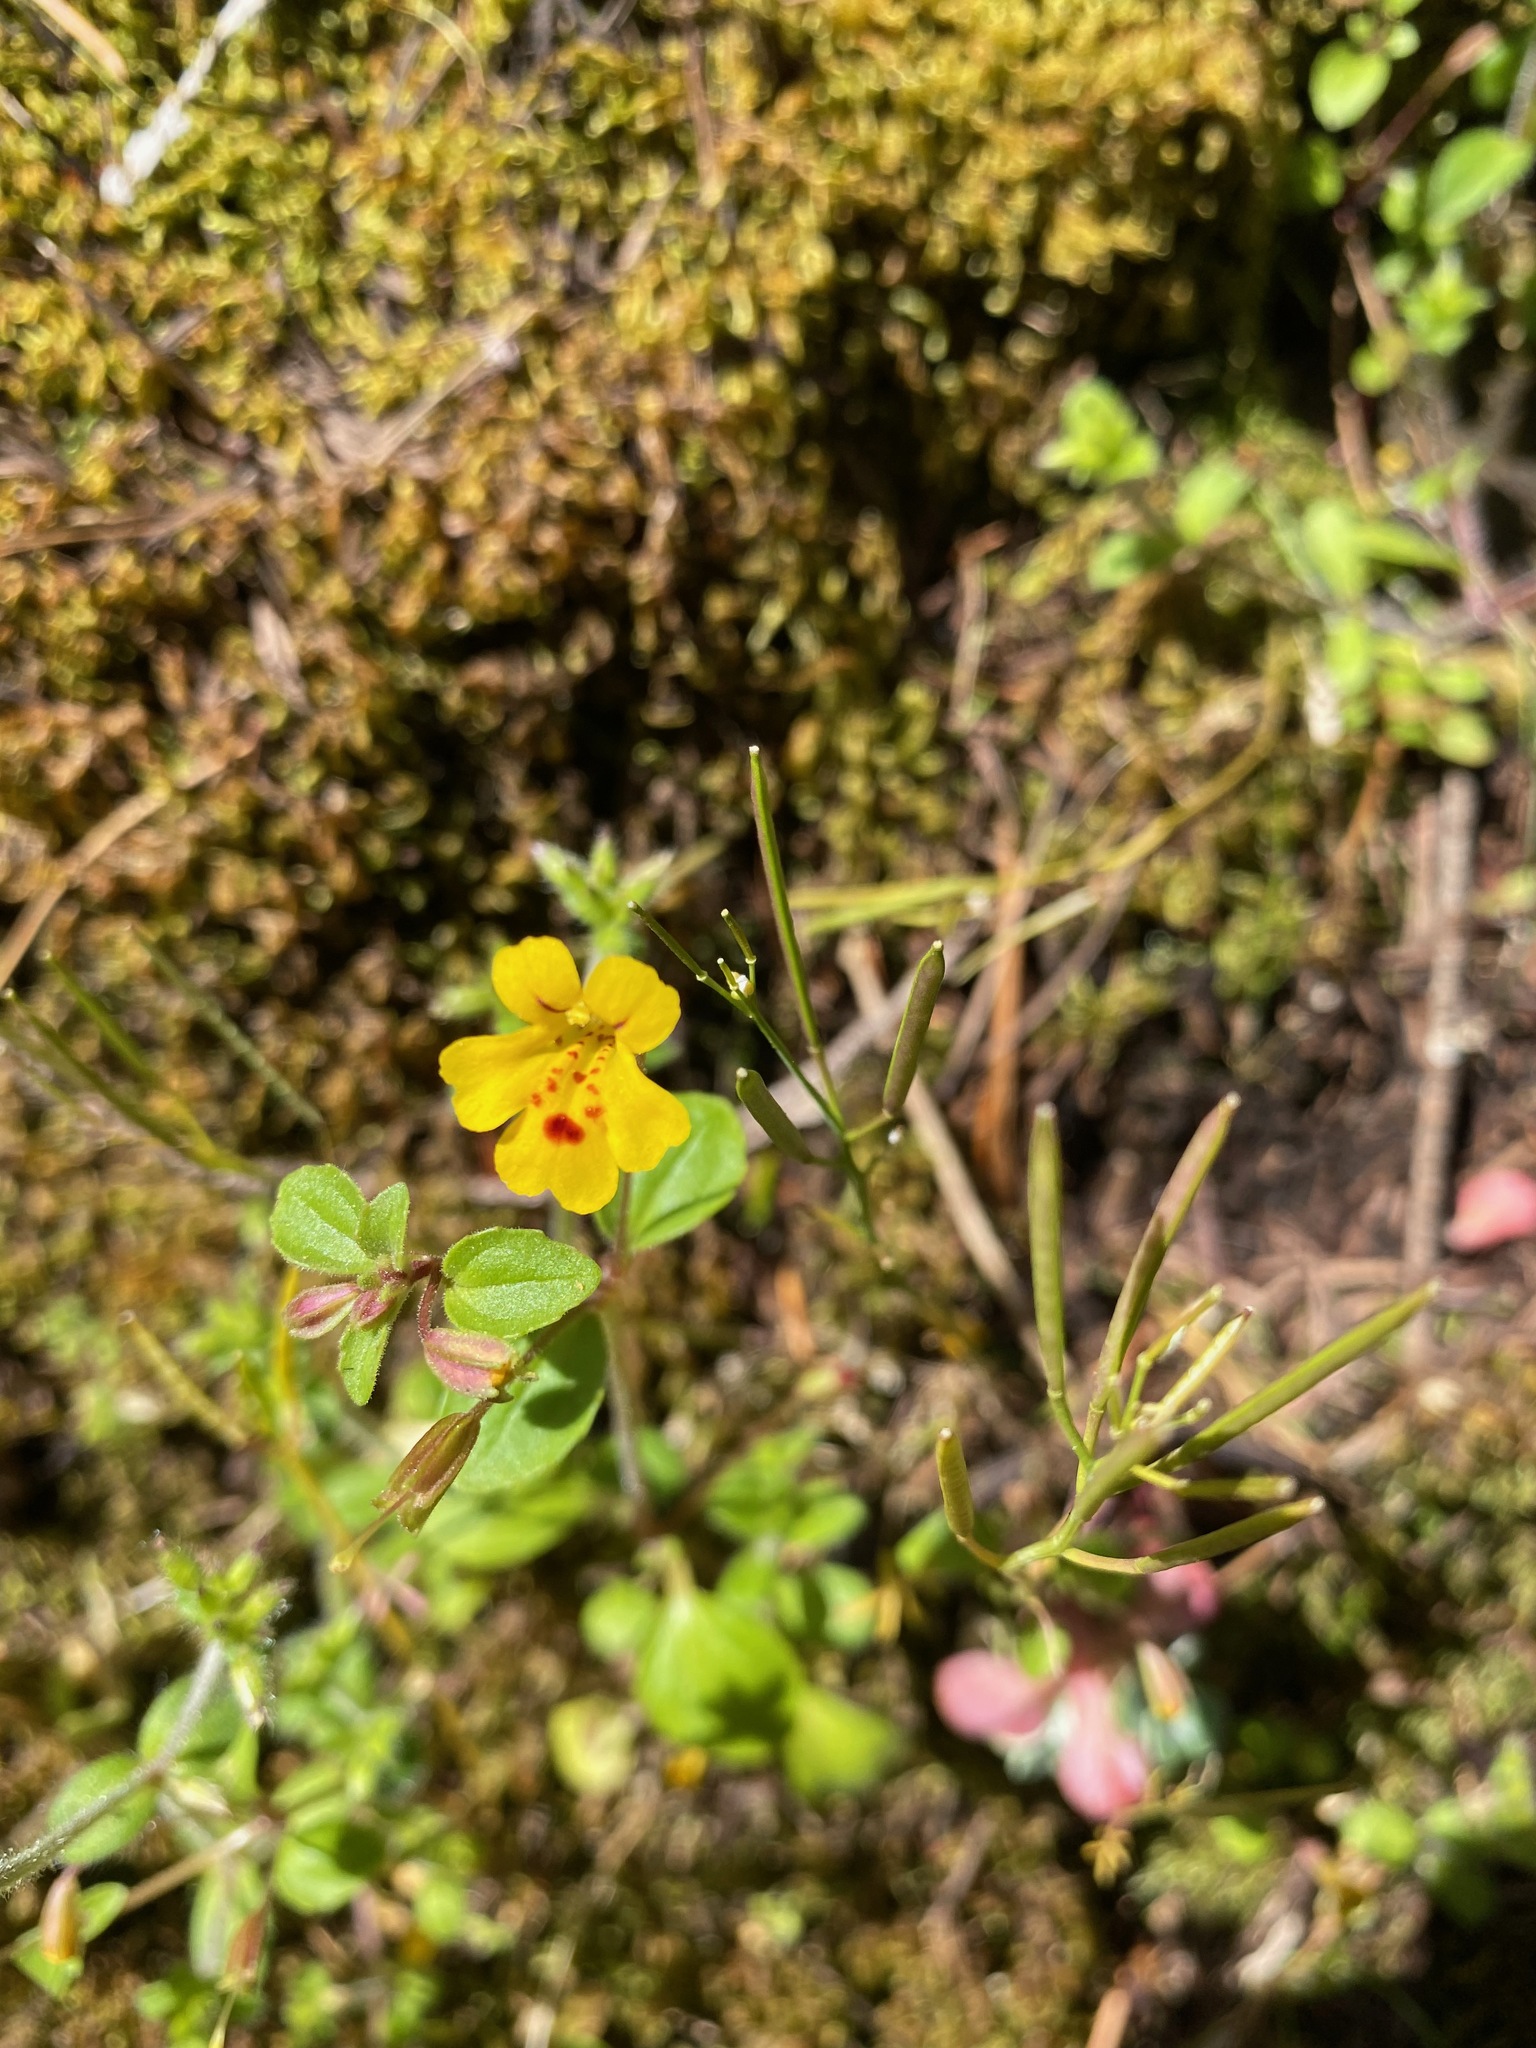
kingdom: Plantae
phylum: Tracheophyta
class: Magnoliopsida
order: Lamiales
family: Phrymaceae
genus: Erythranthe
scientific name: Erythranthe alsinoides
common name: Chickweed monkeyflower
